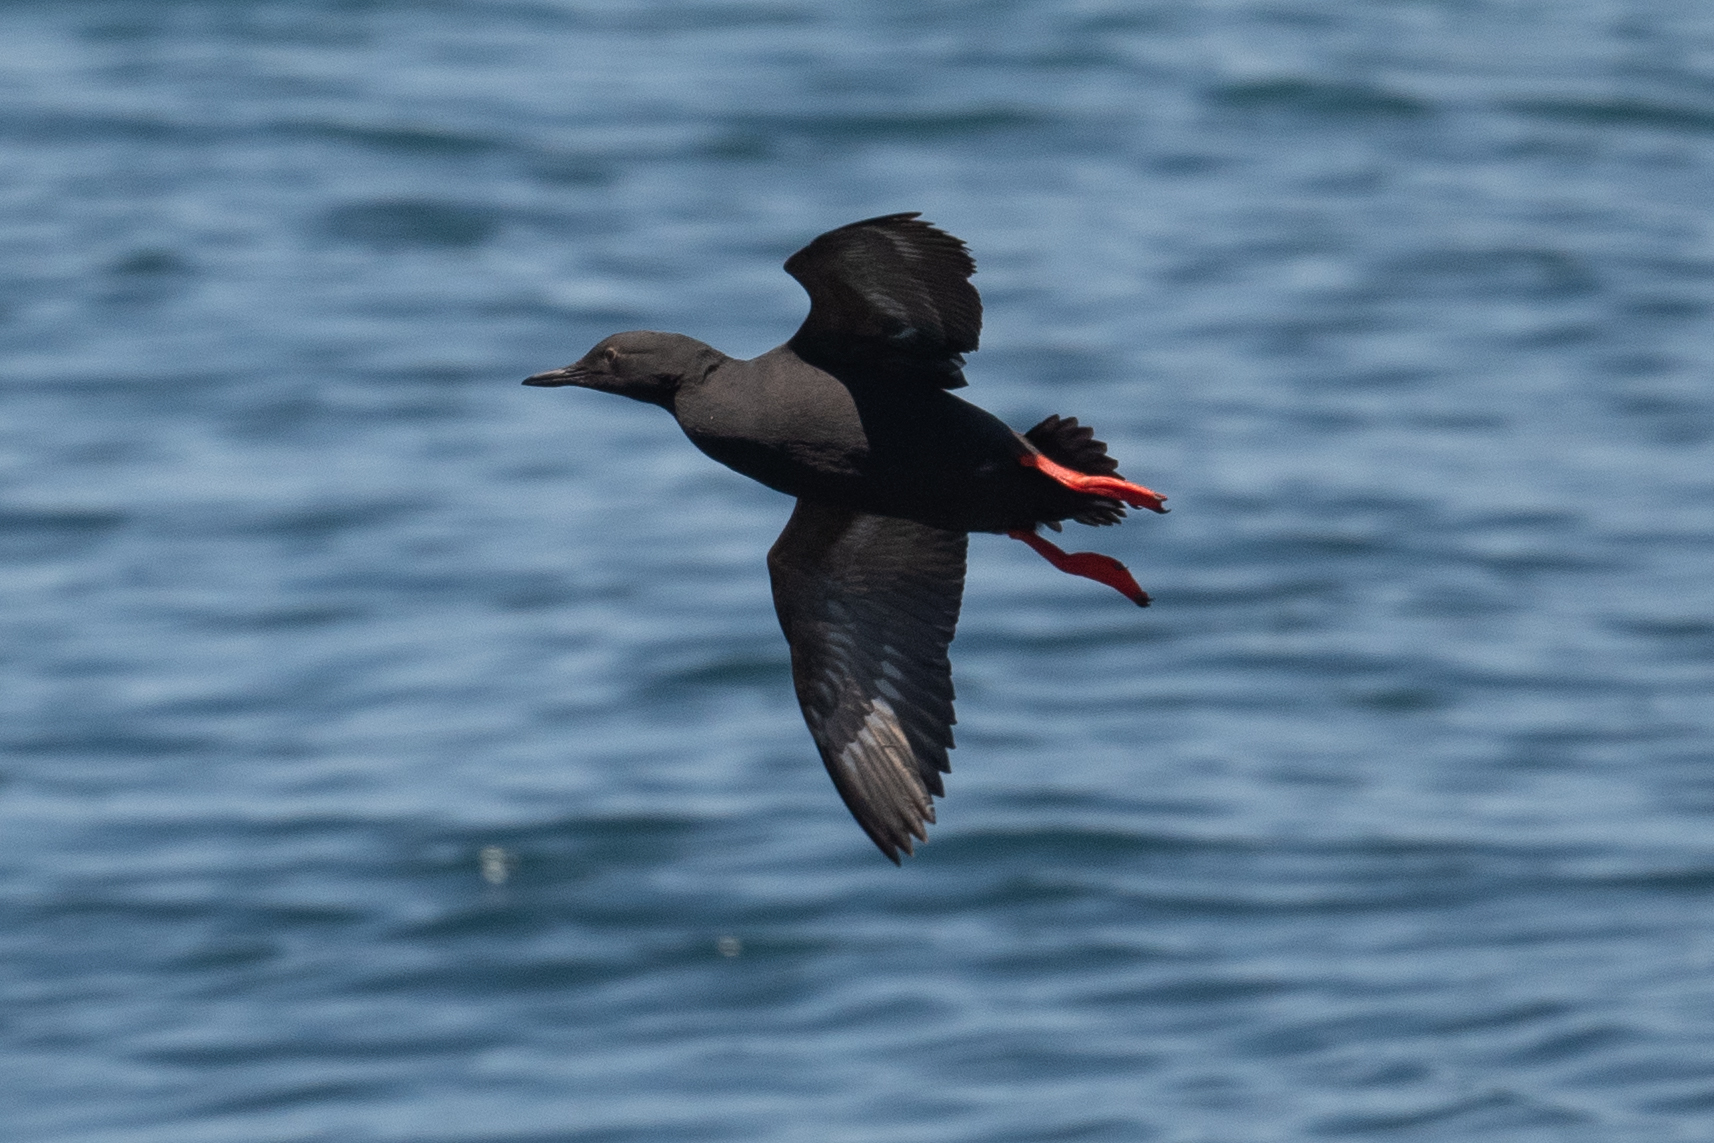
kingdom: Animalia
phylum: Chordata
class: Aves
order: Charadriiformes
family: Alcidae
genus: Cepphus
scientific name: Cepphus columba
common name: Pigeon guillemot
